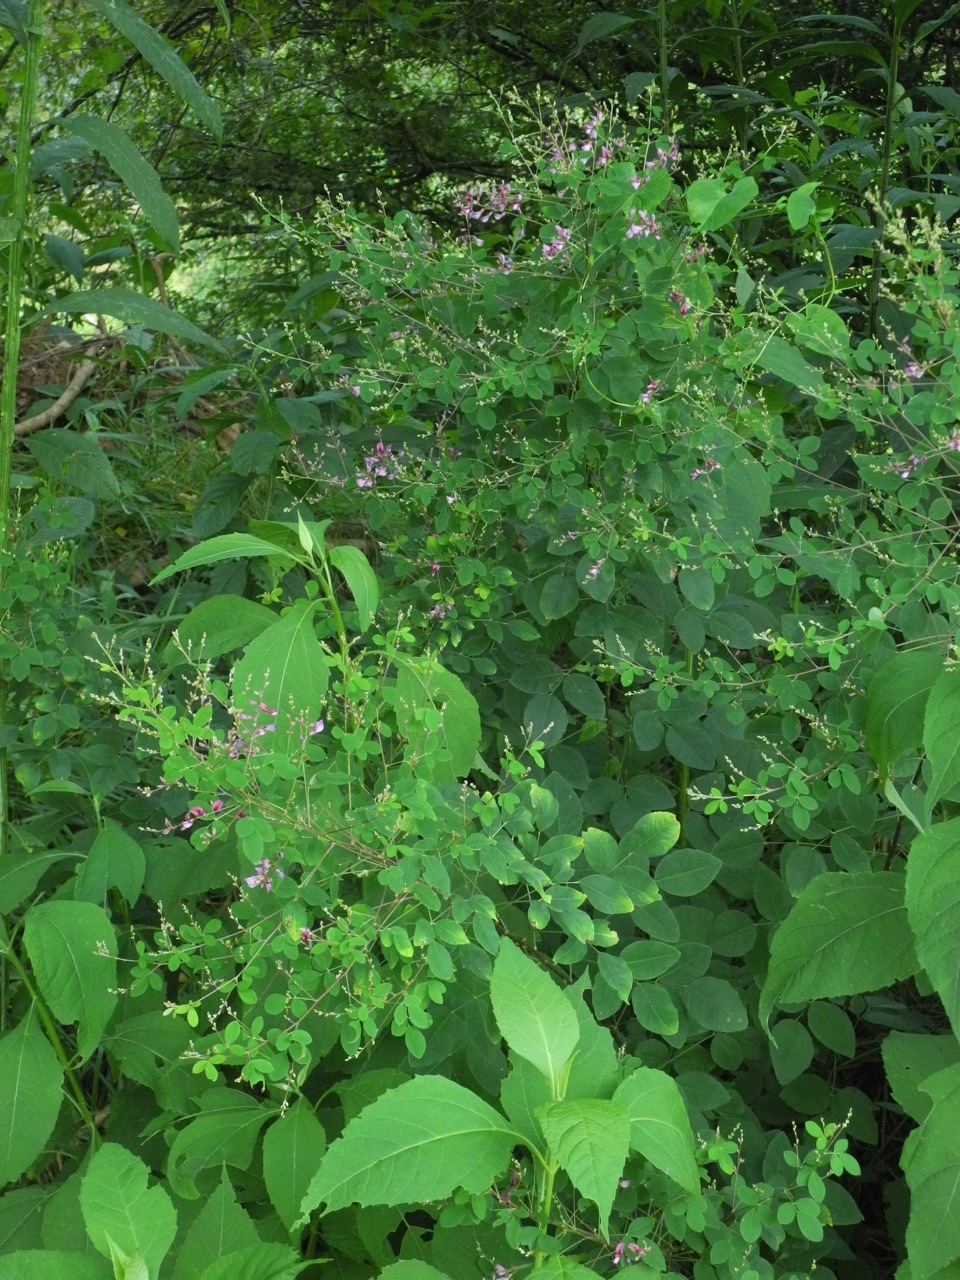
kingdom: Plantae
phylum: Tracheophyta
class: Magnoliopsida
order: Fabales
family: Fabaceae
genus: Lespedeza
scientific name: Lespedeza bicolor
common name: Shrub lespedeza
